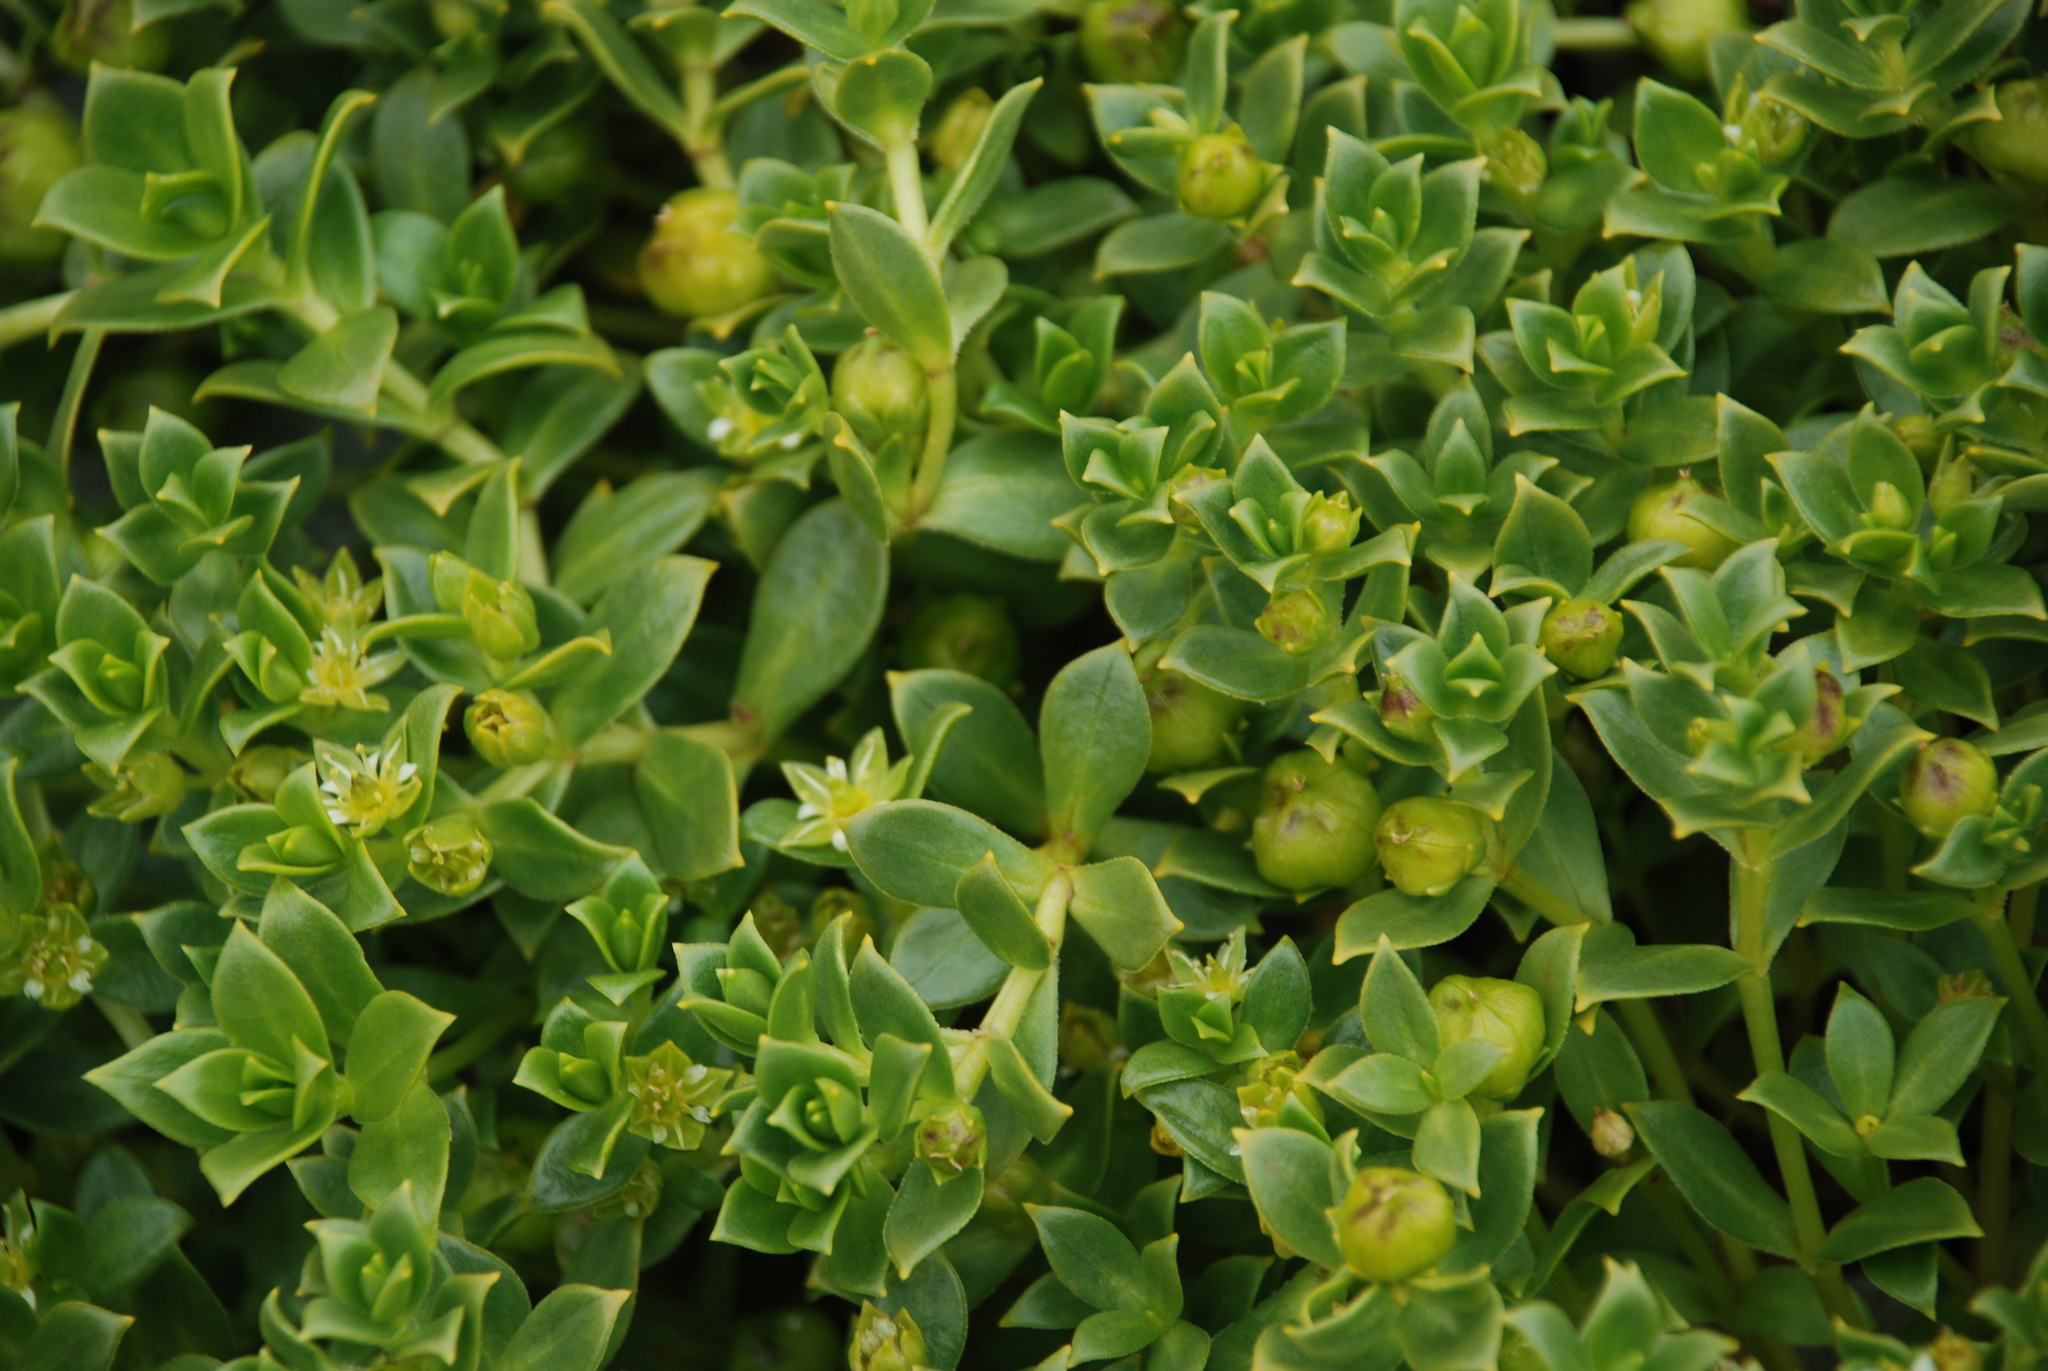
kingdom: Plantae
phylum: Tracheophyta
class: Magnoliopsida
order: Caryophyllales
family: Caryophyllaceae
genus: Honckenya
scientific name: Honckenya peploides
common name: Sea sandwort
